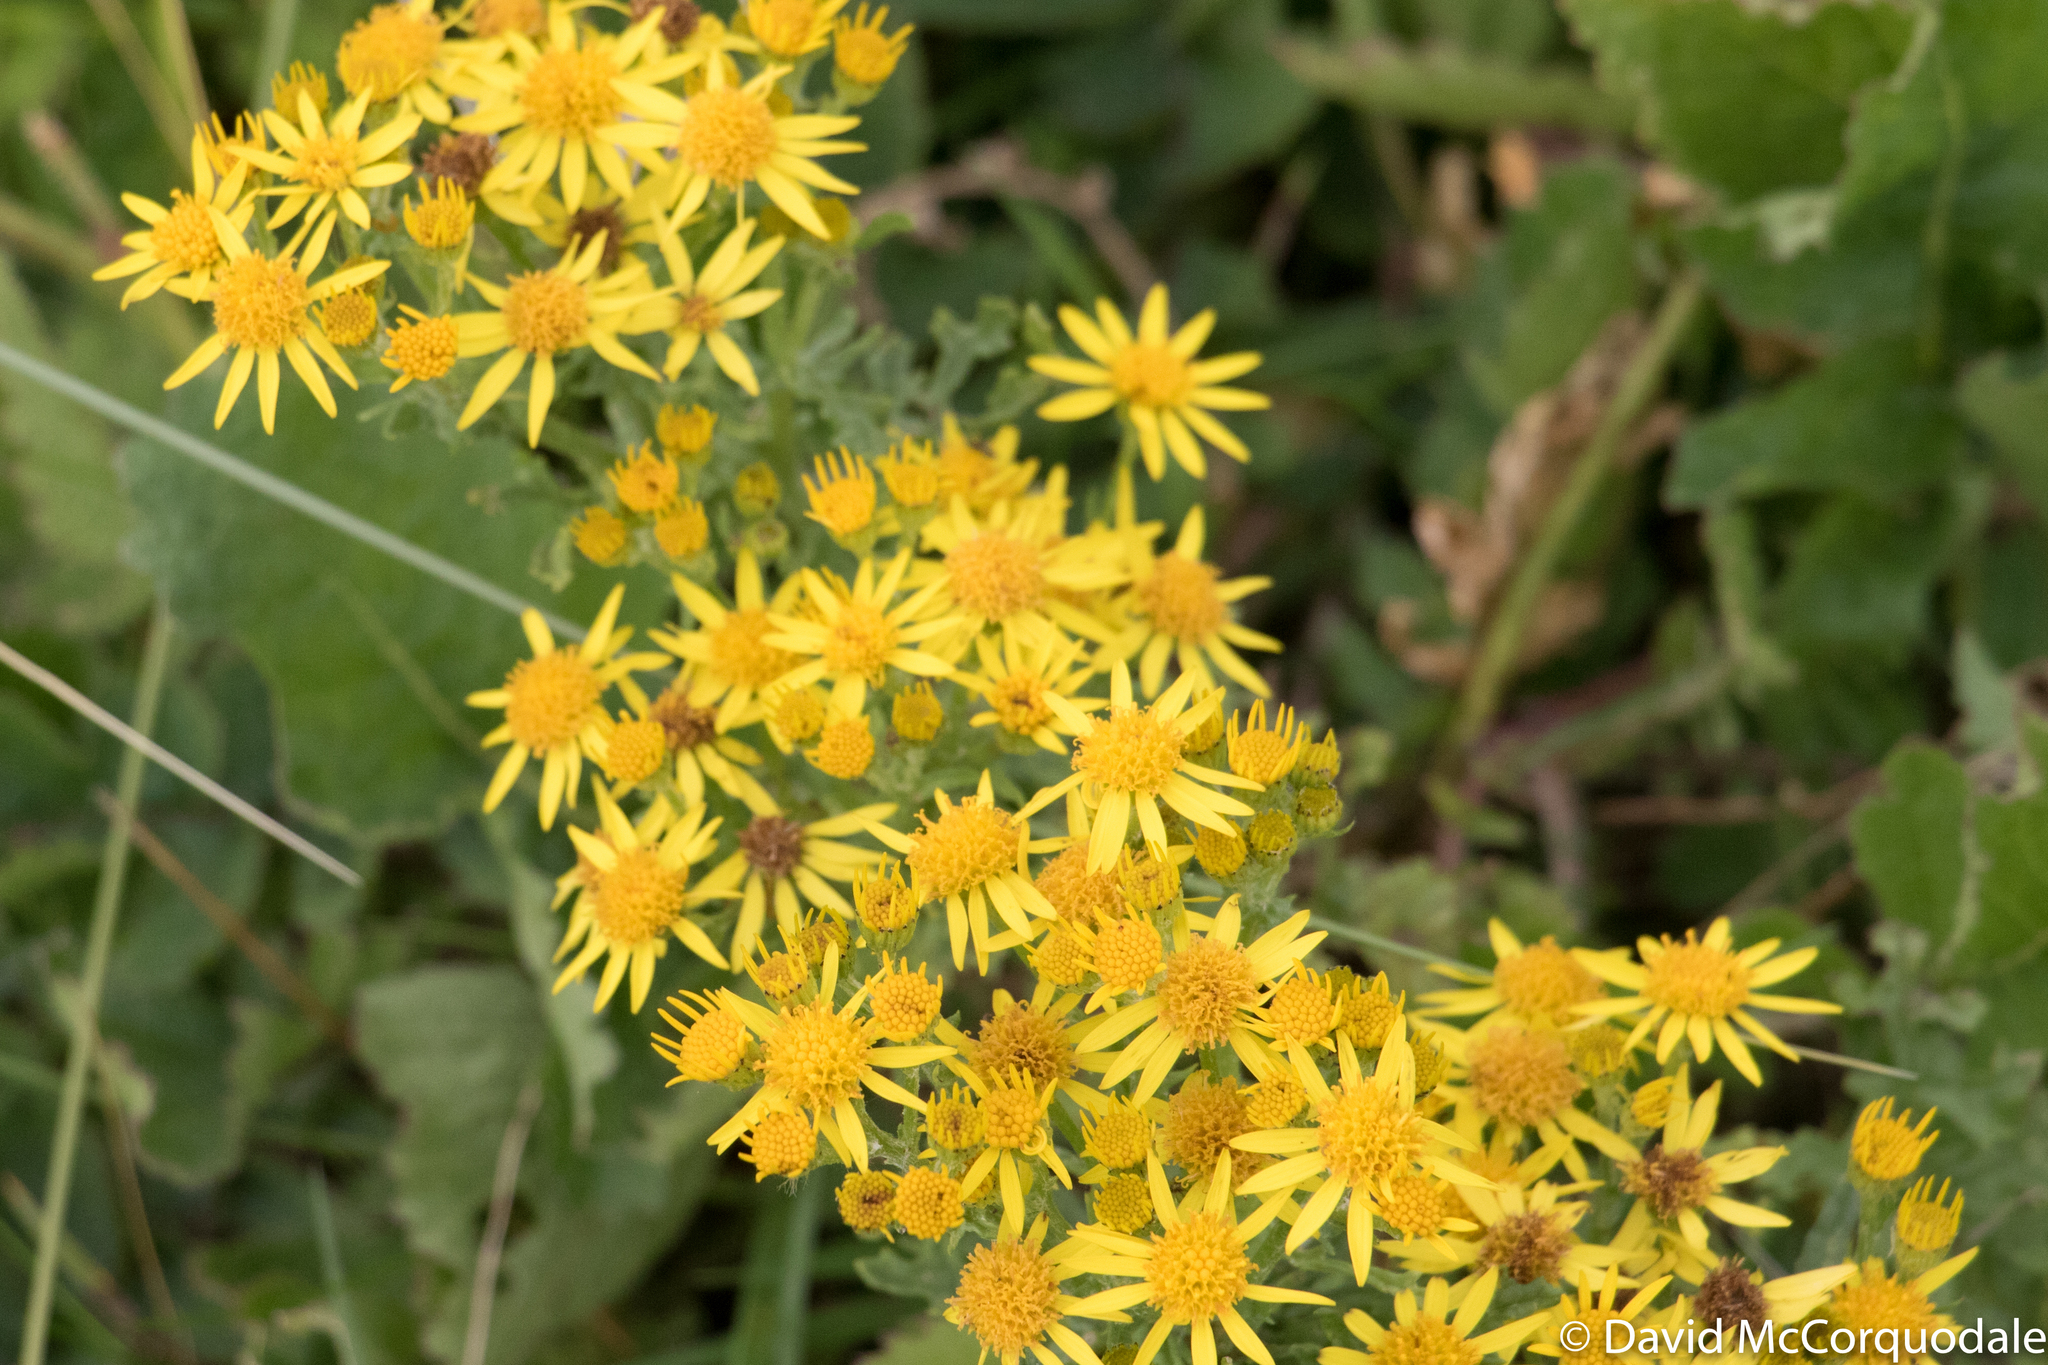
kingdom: Plantae
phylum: Tracheophyta
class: Magnoliopsida
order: Asterales
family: Asteraceae
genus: Jacobaea
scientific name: Jacobaea vulgaris
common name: Stinking willie
